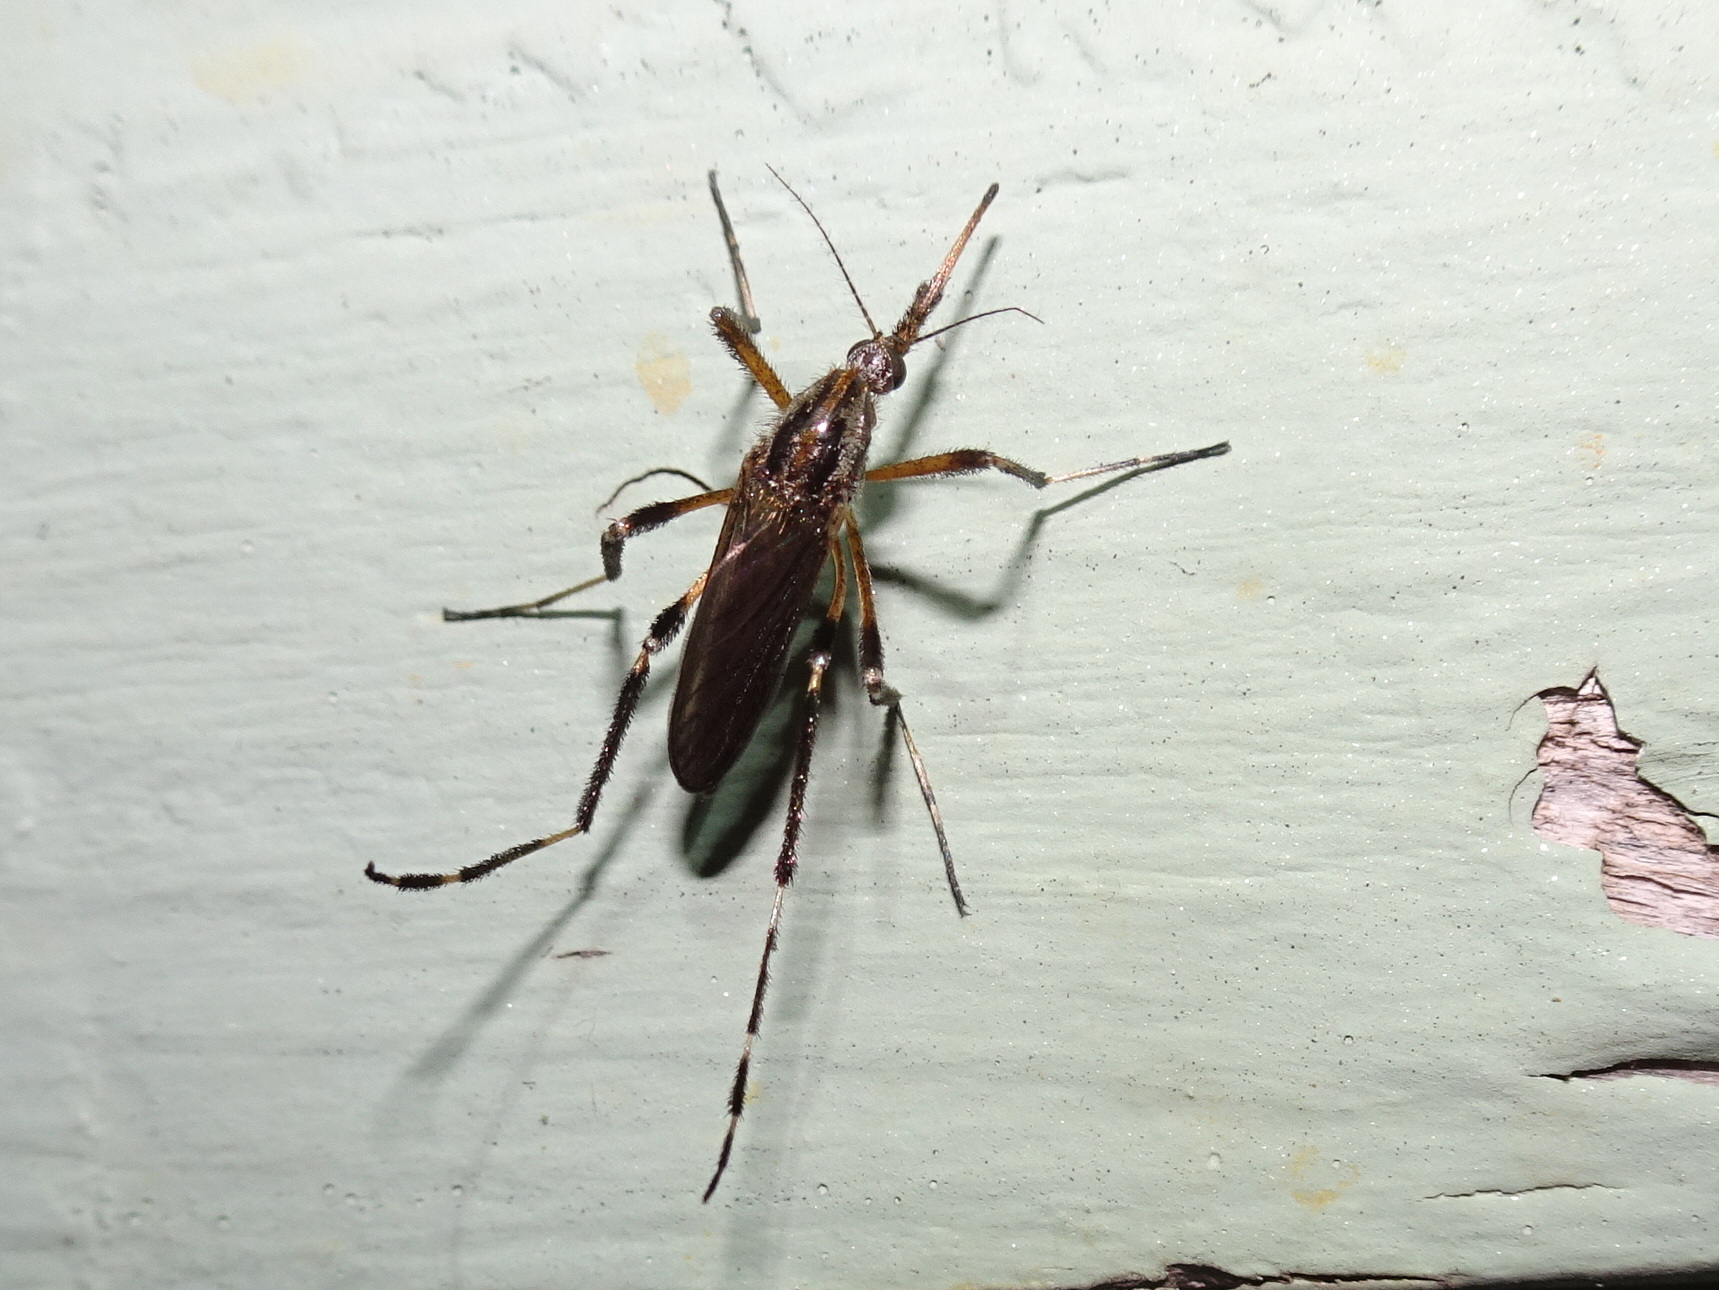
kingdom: Animalia
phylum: Arthropoda
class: Insecta
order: Diptera
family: Culicidae
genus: Psorophora
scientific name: Psorophora ciliata
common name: Gallinipper
